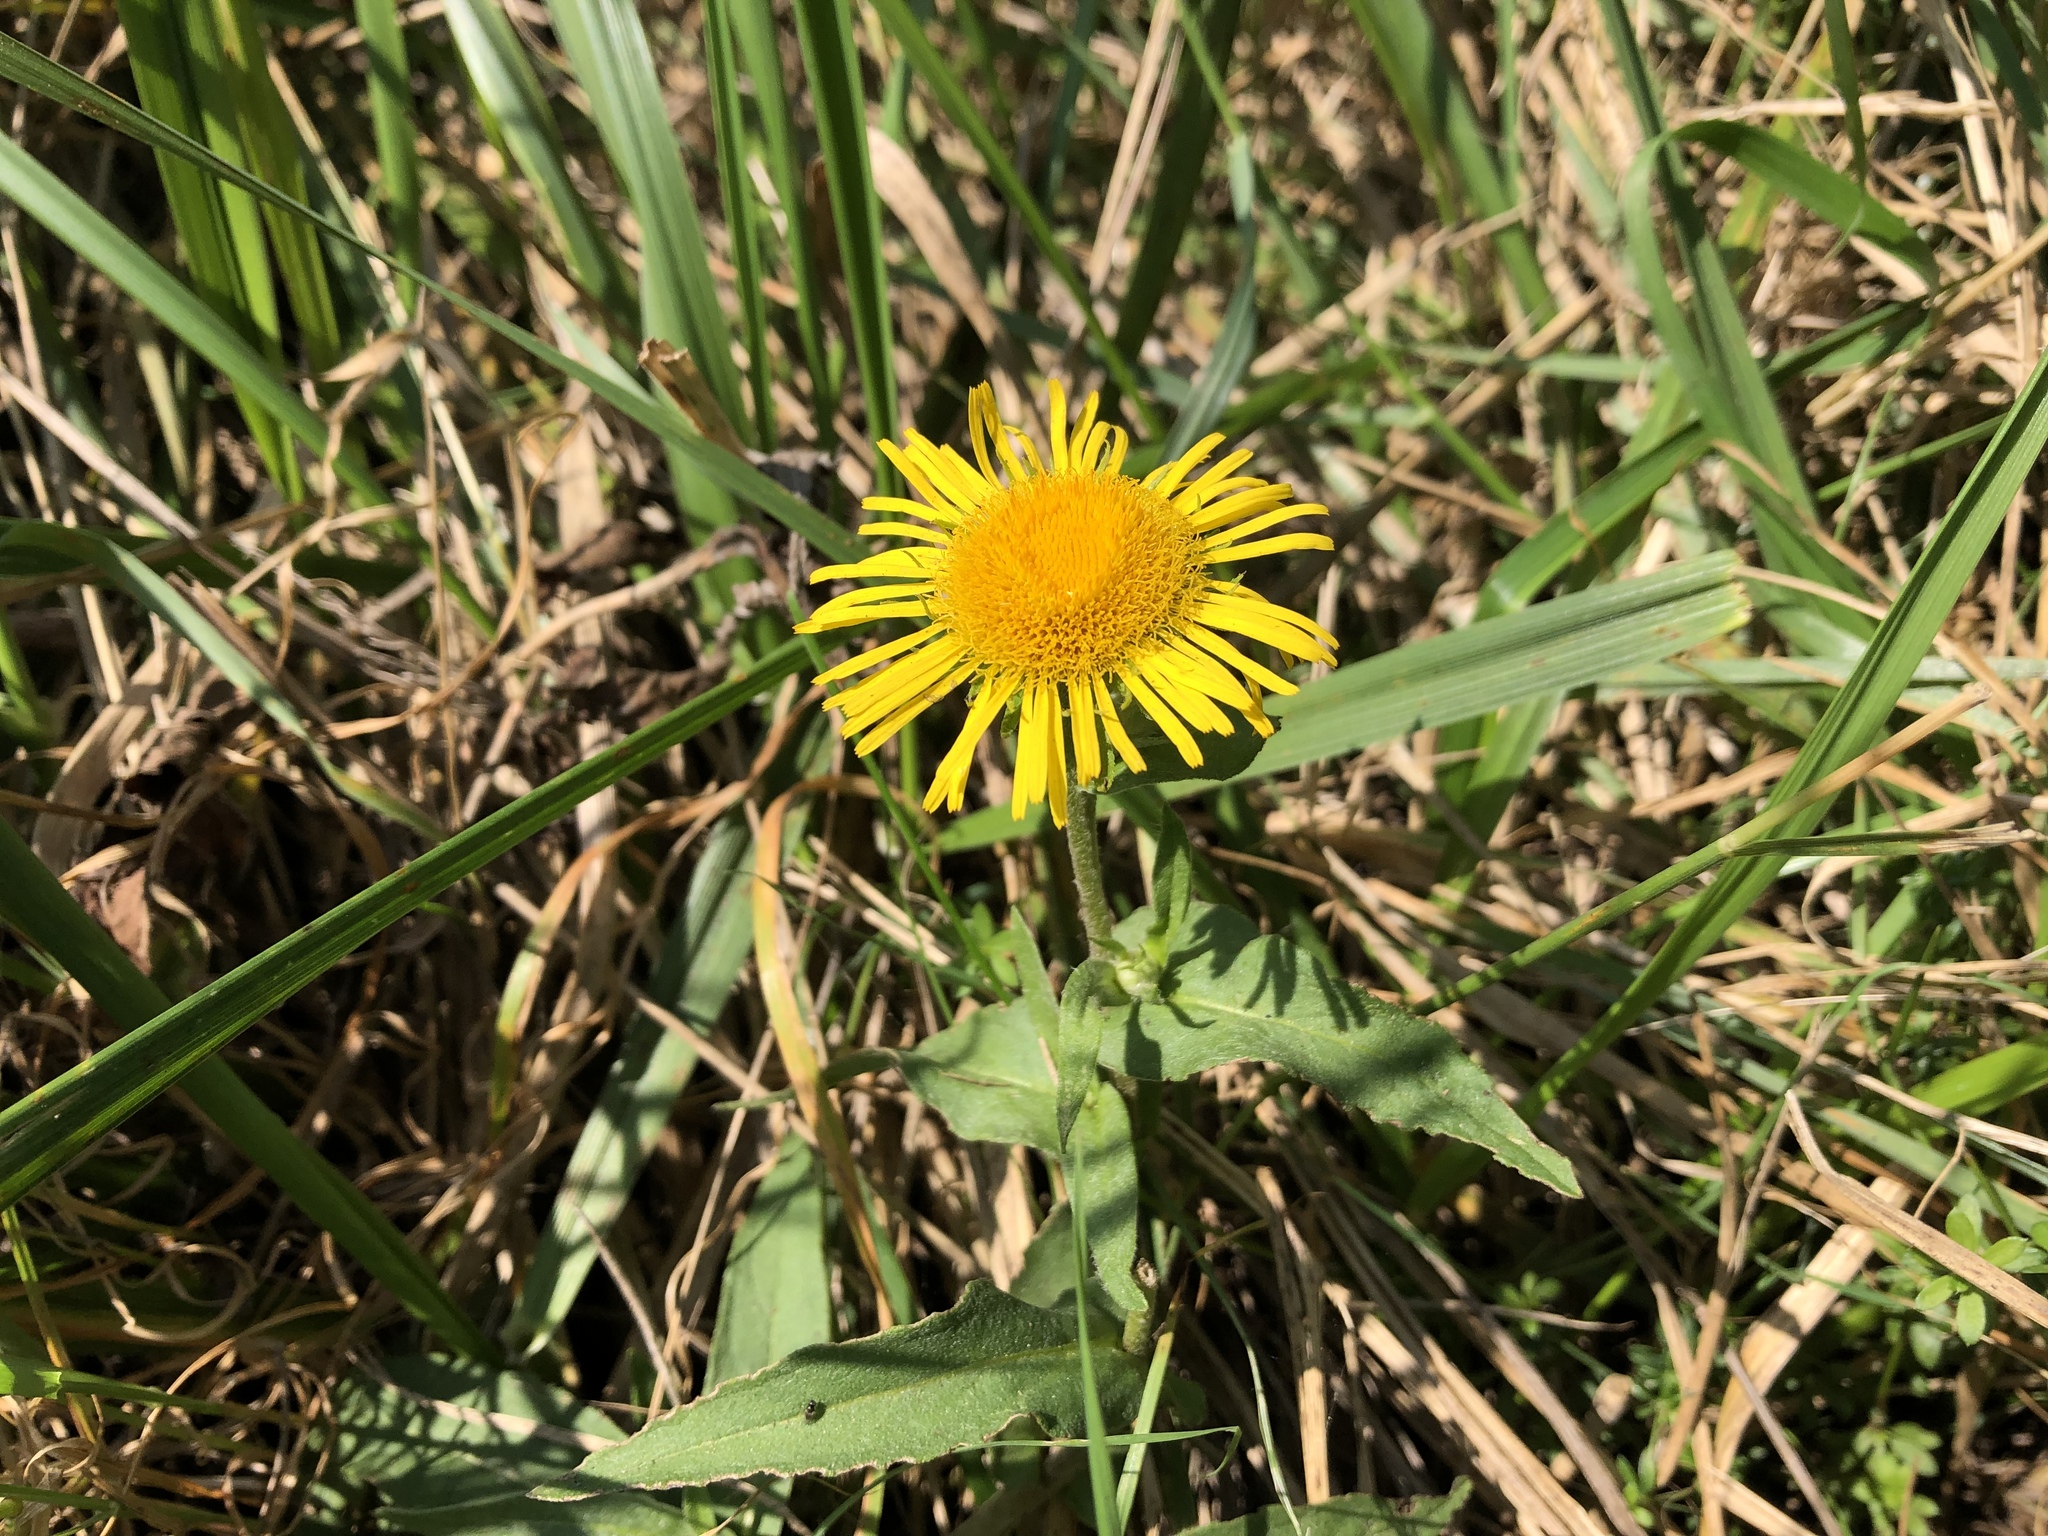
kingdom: Plantae
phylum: Tracheophyta
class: Magnoliopsida
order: Asterales
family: Asteraceae
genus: Pentanema
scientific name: Pentanema britannicum
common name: British elecampane
